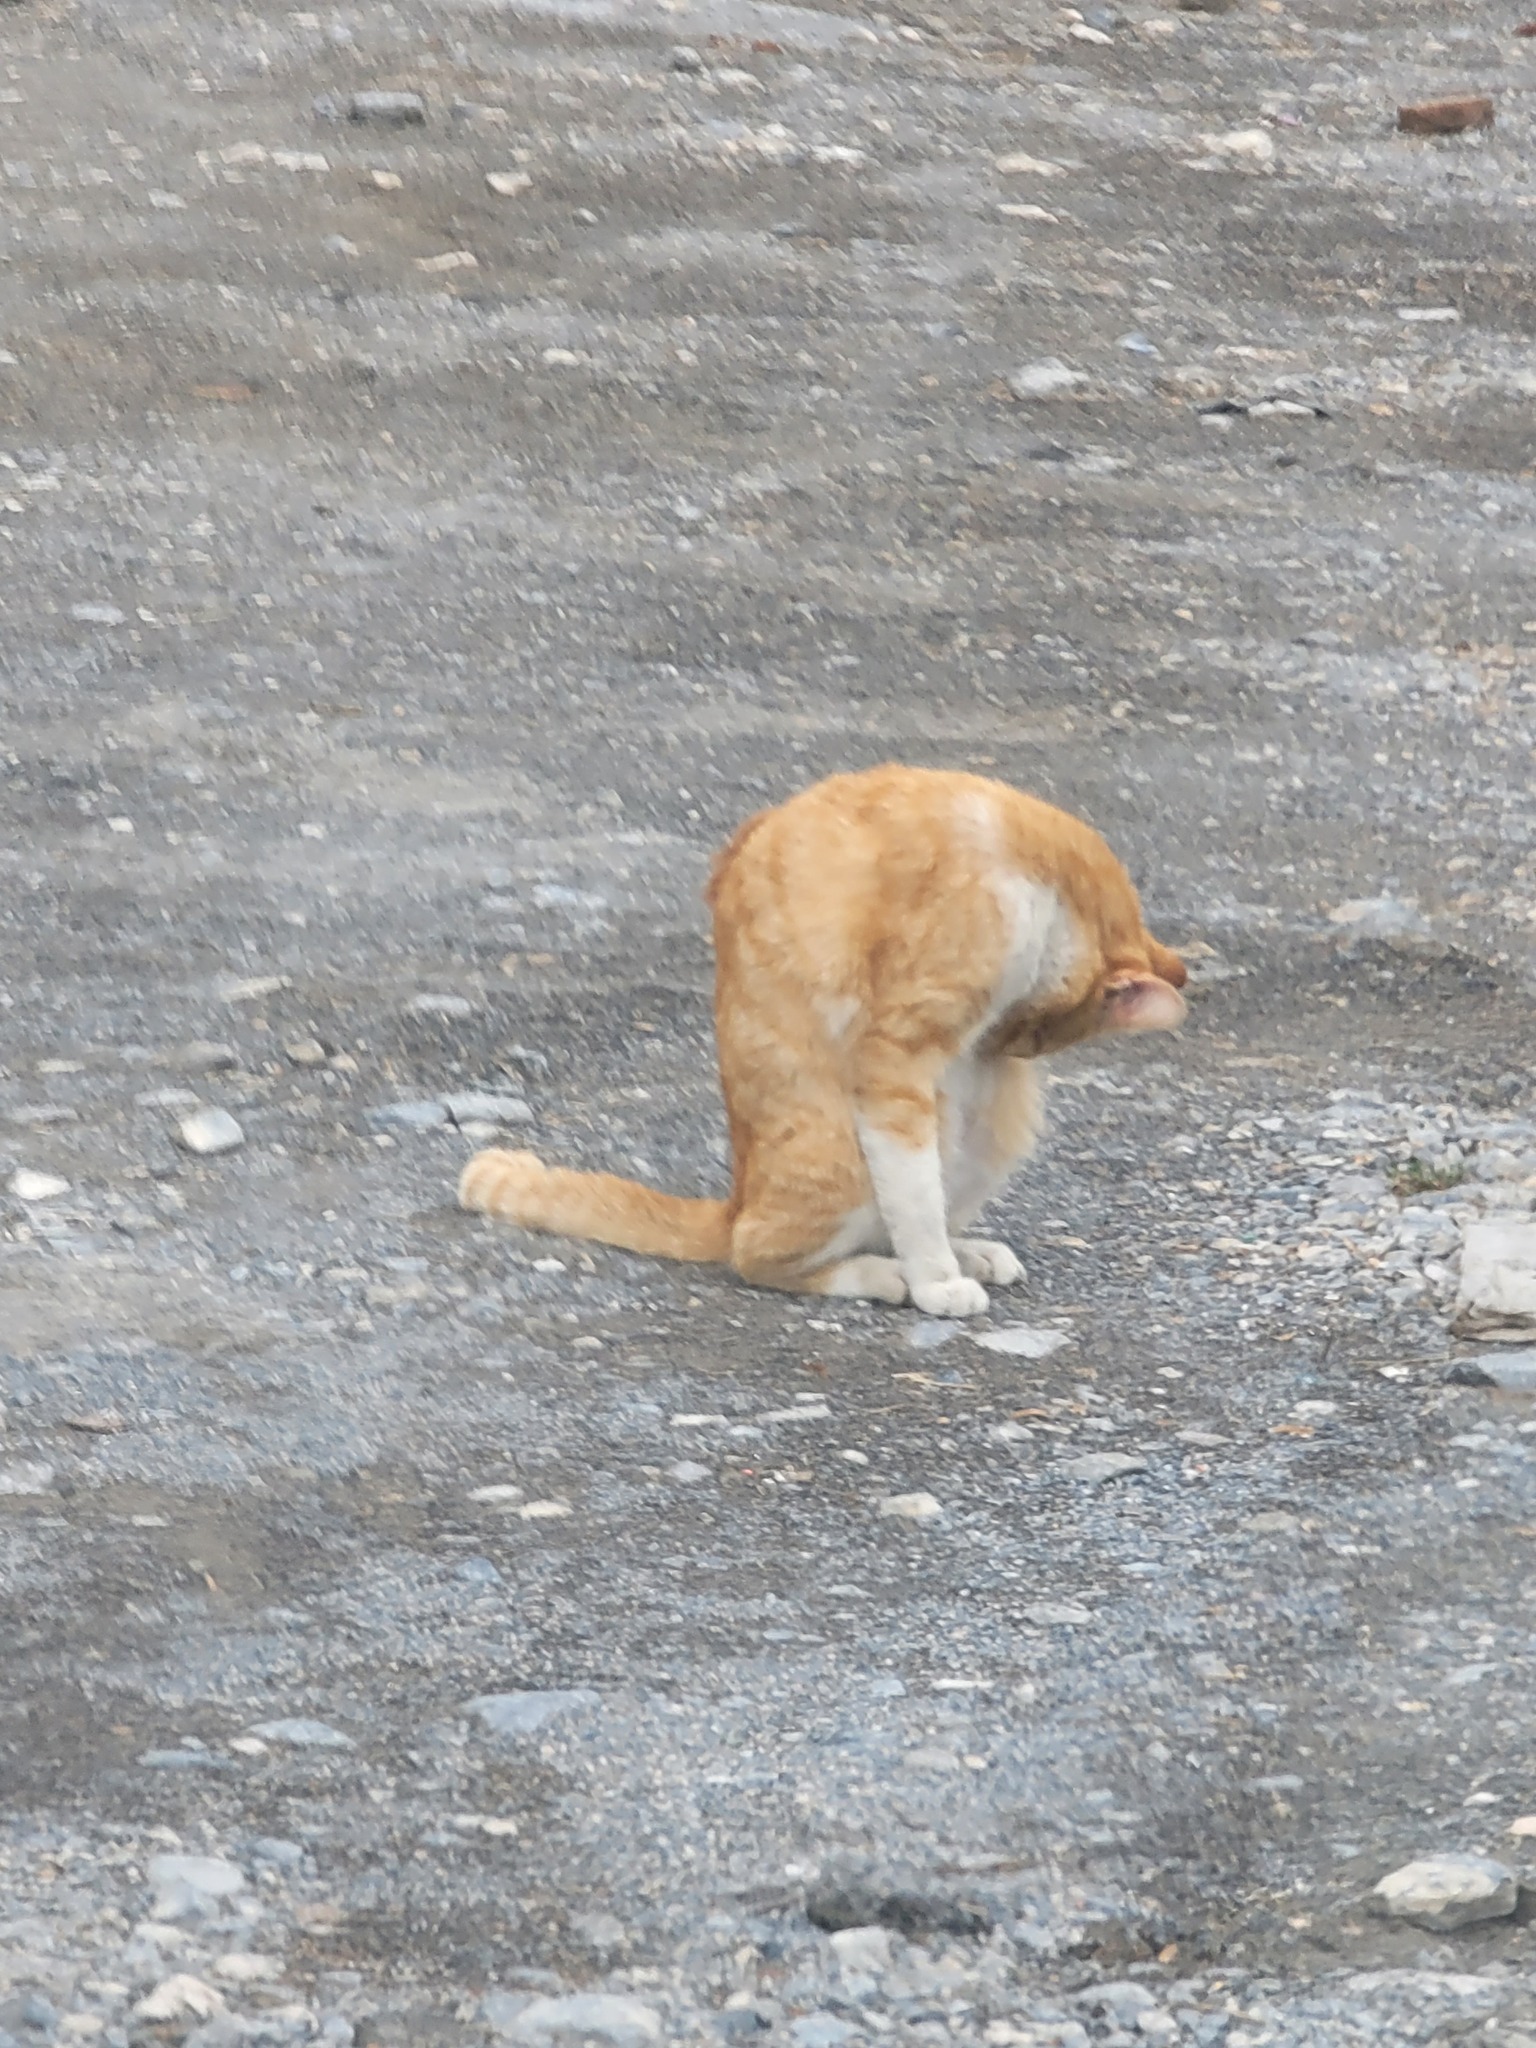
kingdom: Animalia
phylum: Chordata
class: Mammalia
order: Carnivora
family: Felidae
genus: Felis
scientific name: Felis catus
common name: Domestic cat
